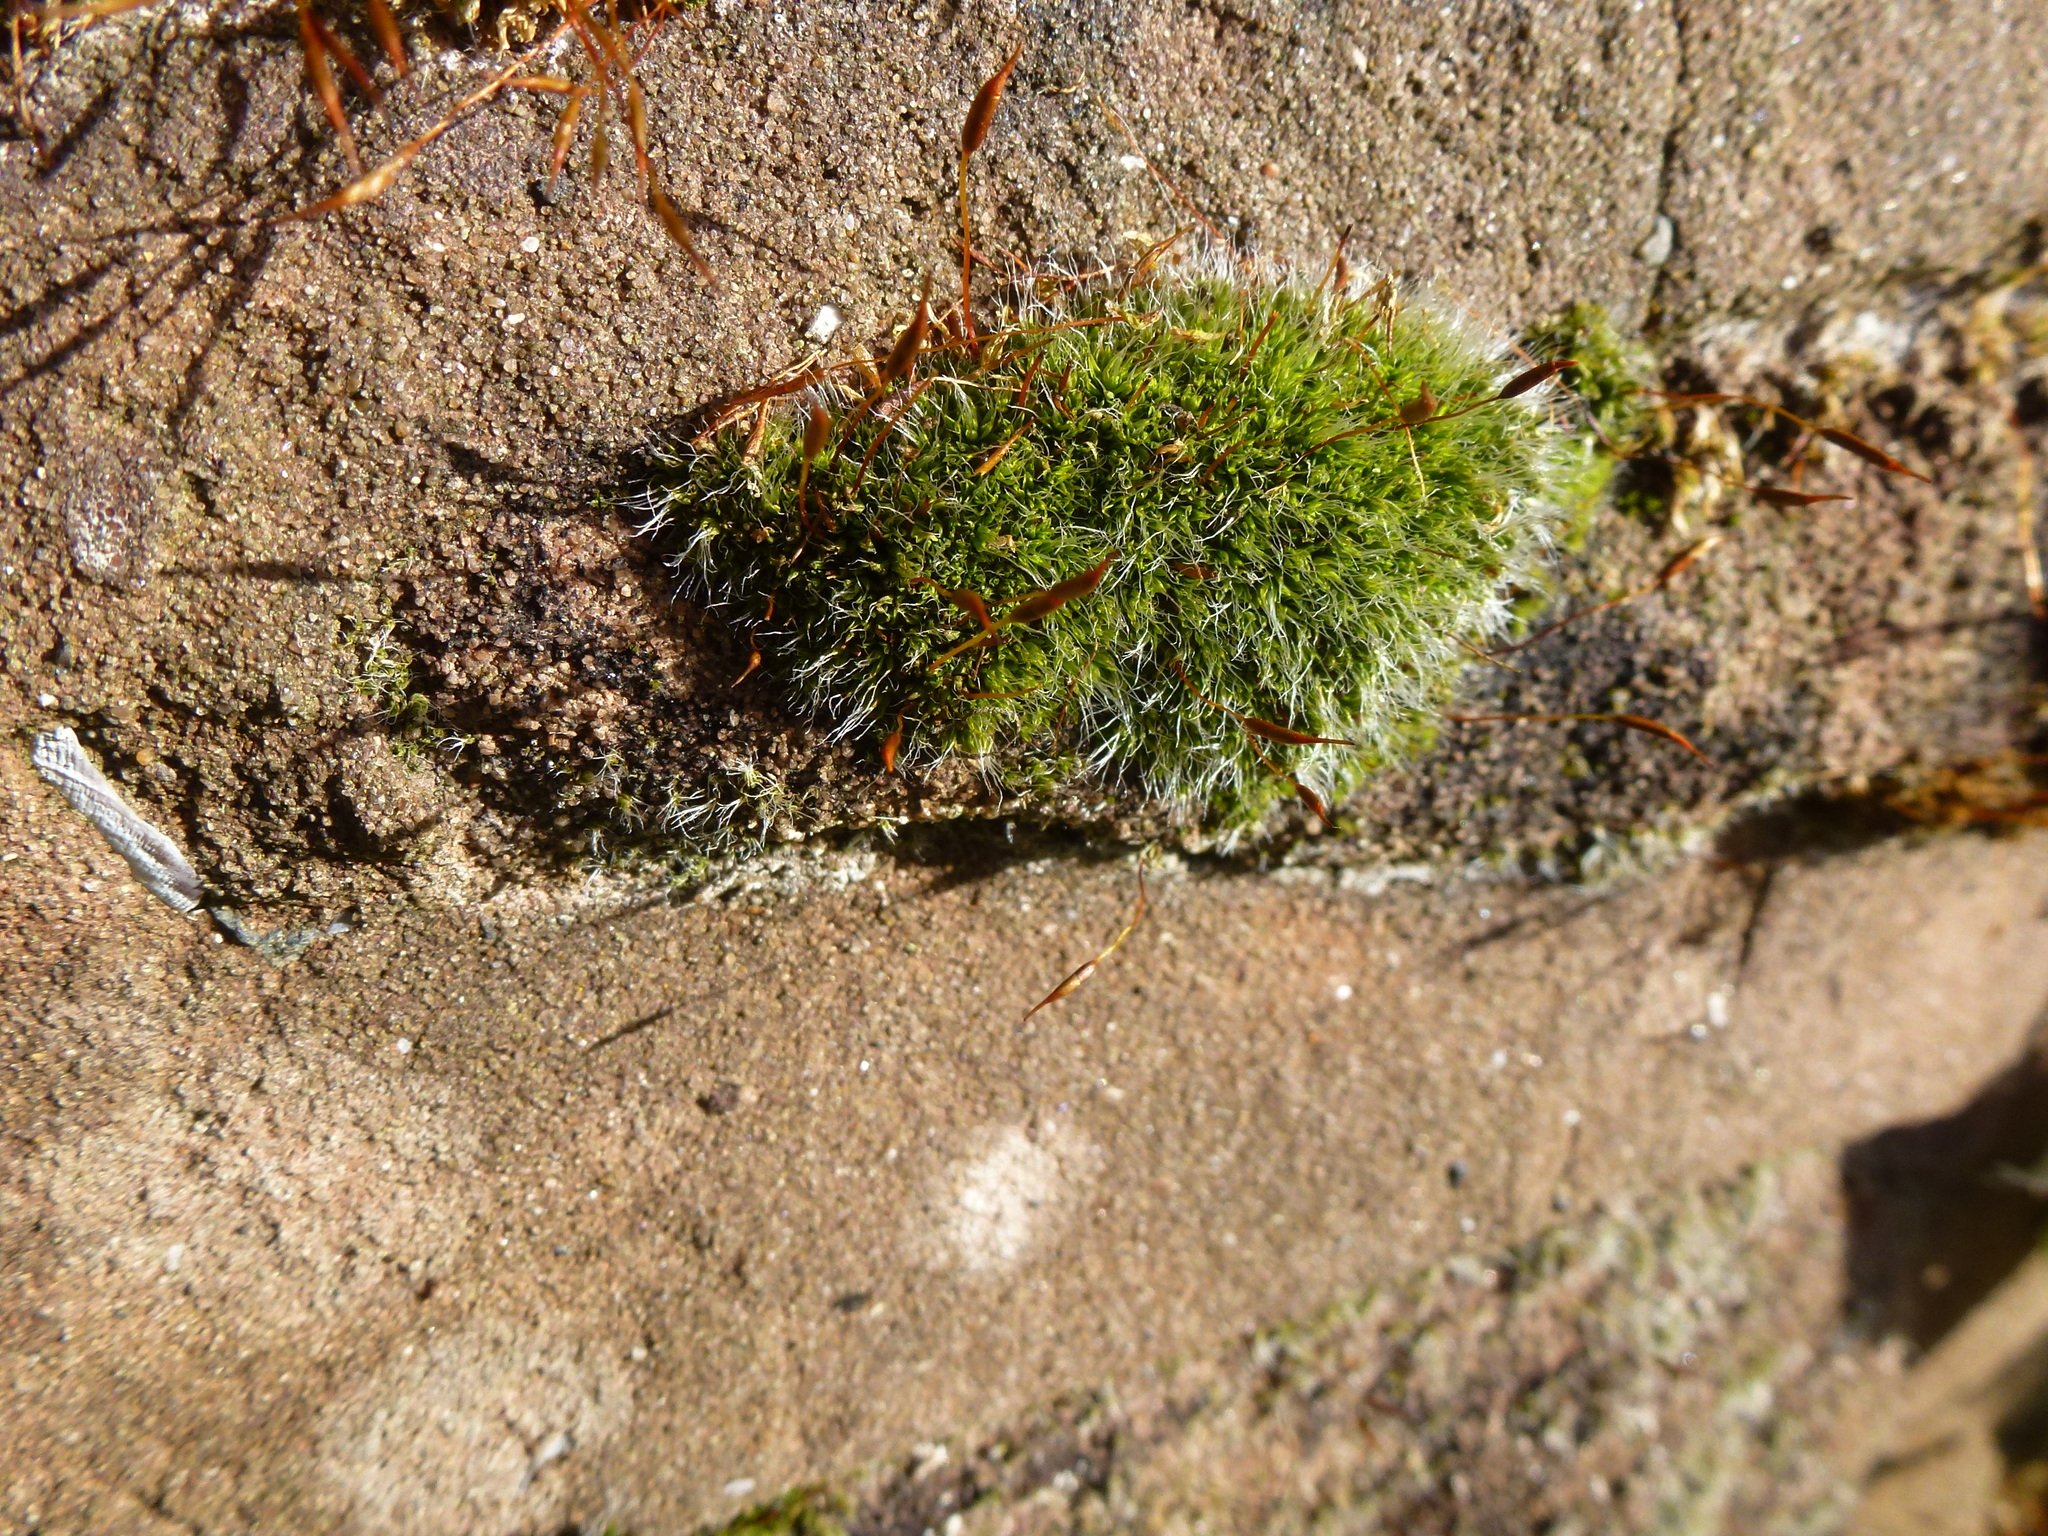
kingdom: Plantae
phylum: Bryophyta
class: Bryopsida
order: Pottiales
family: Pottiaceae
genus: Tortula
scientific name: Tortula muralis
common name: Wall screw-moss
